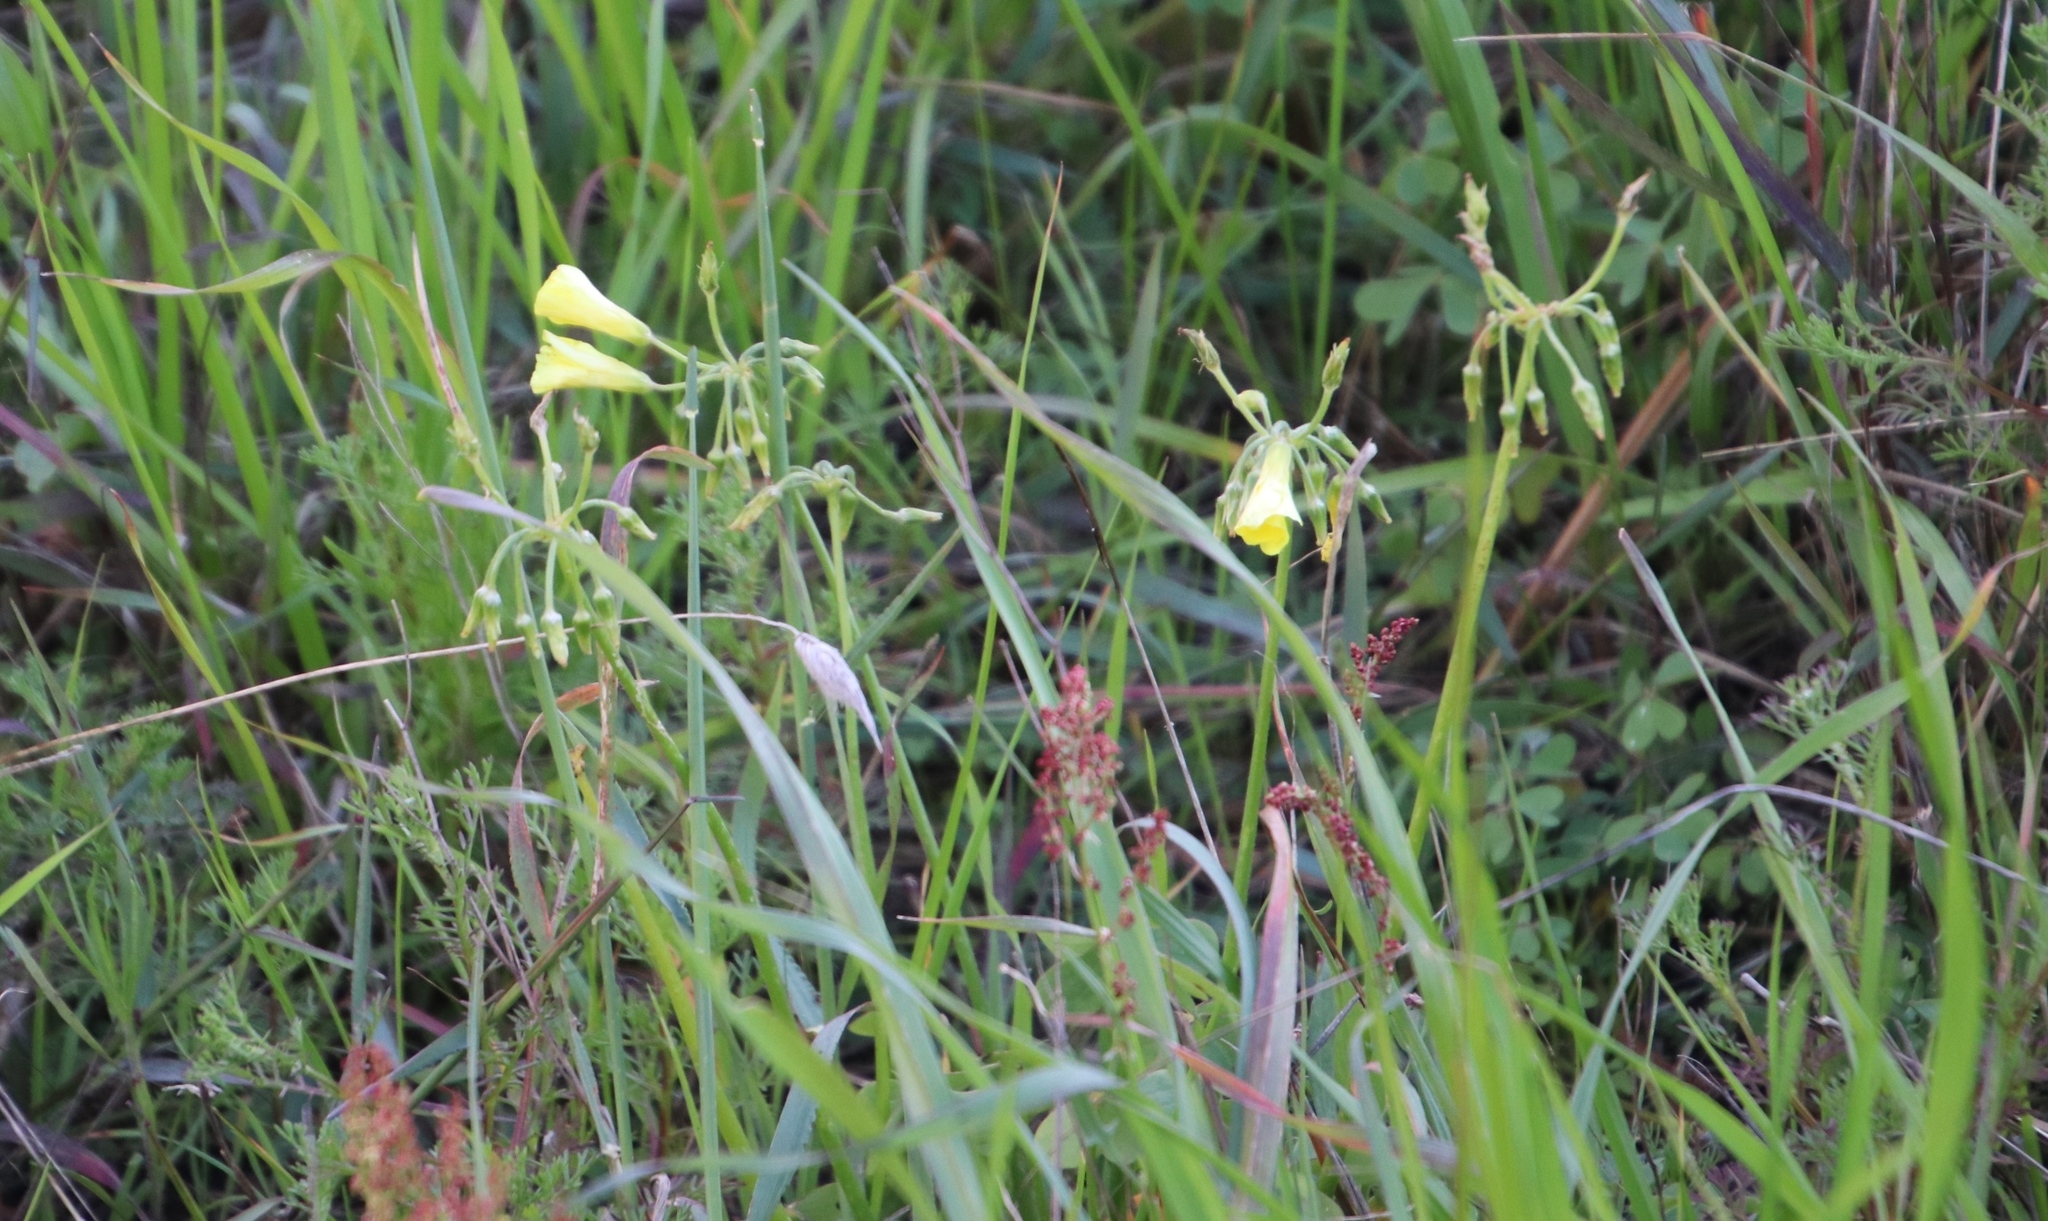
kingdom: Plantae
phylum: Tracheophyta
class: Magnoliopsida
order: Oxalidales
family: Oxalidaceae
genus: Oxalis
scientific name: Oxalis pes-caprae
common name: Bermuda-buttercup
